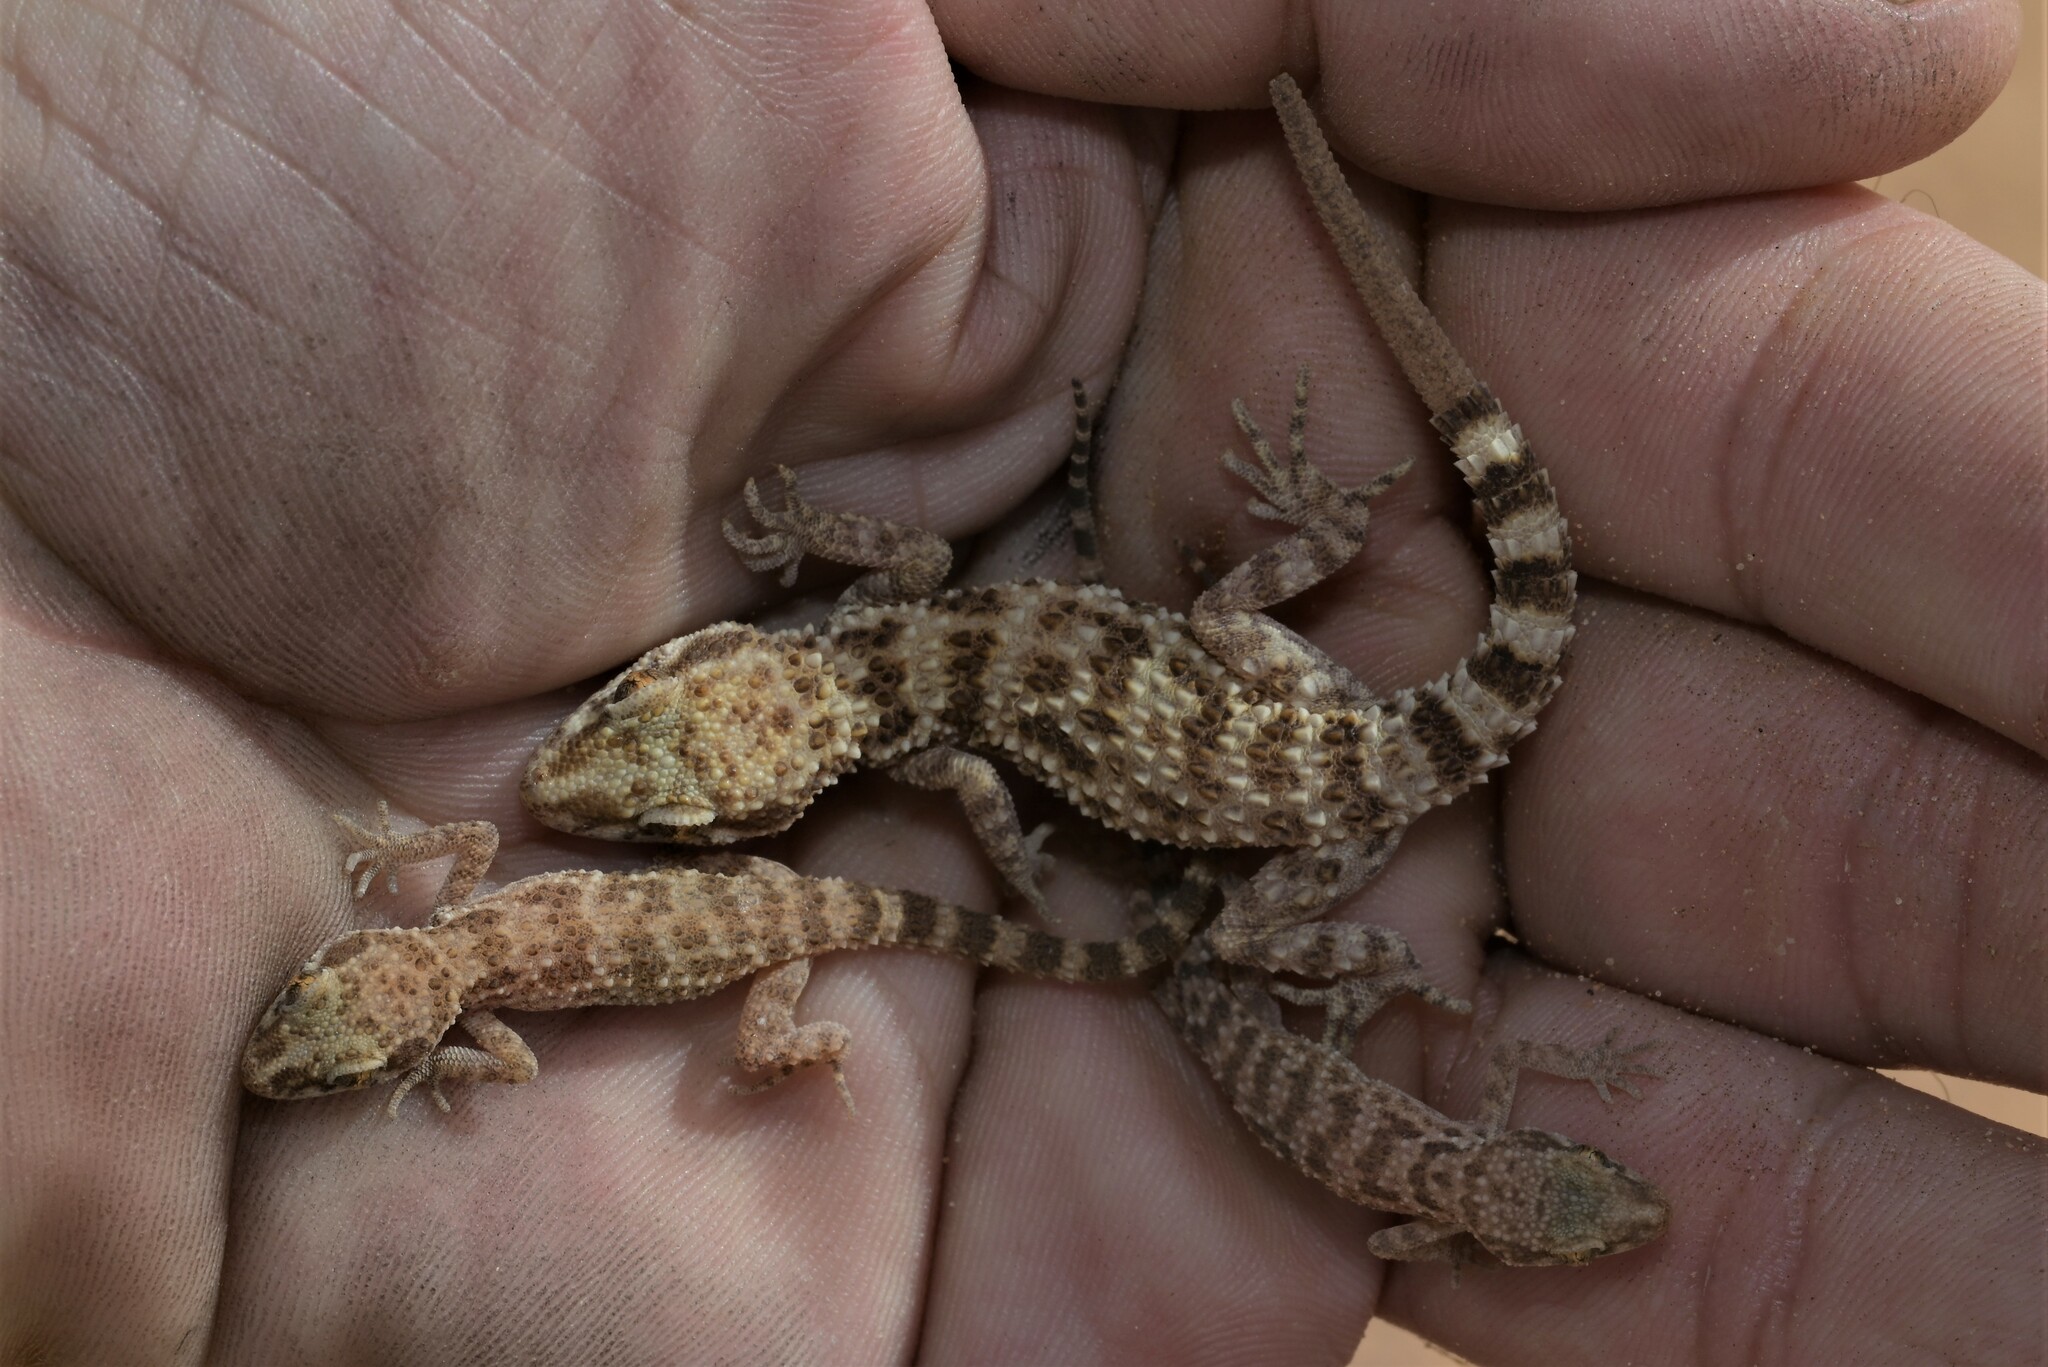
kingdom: Animalia
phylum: Chordata
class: Squamata
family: Gekkonidae
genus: Bunopus
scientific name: Bunopus tuberculatus
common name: Southern tuberculated gecko
